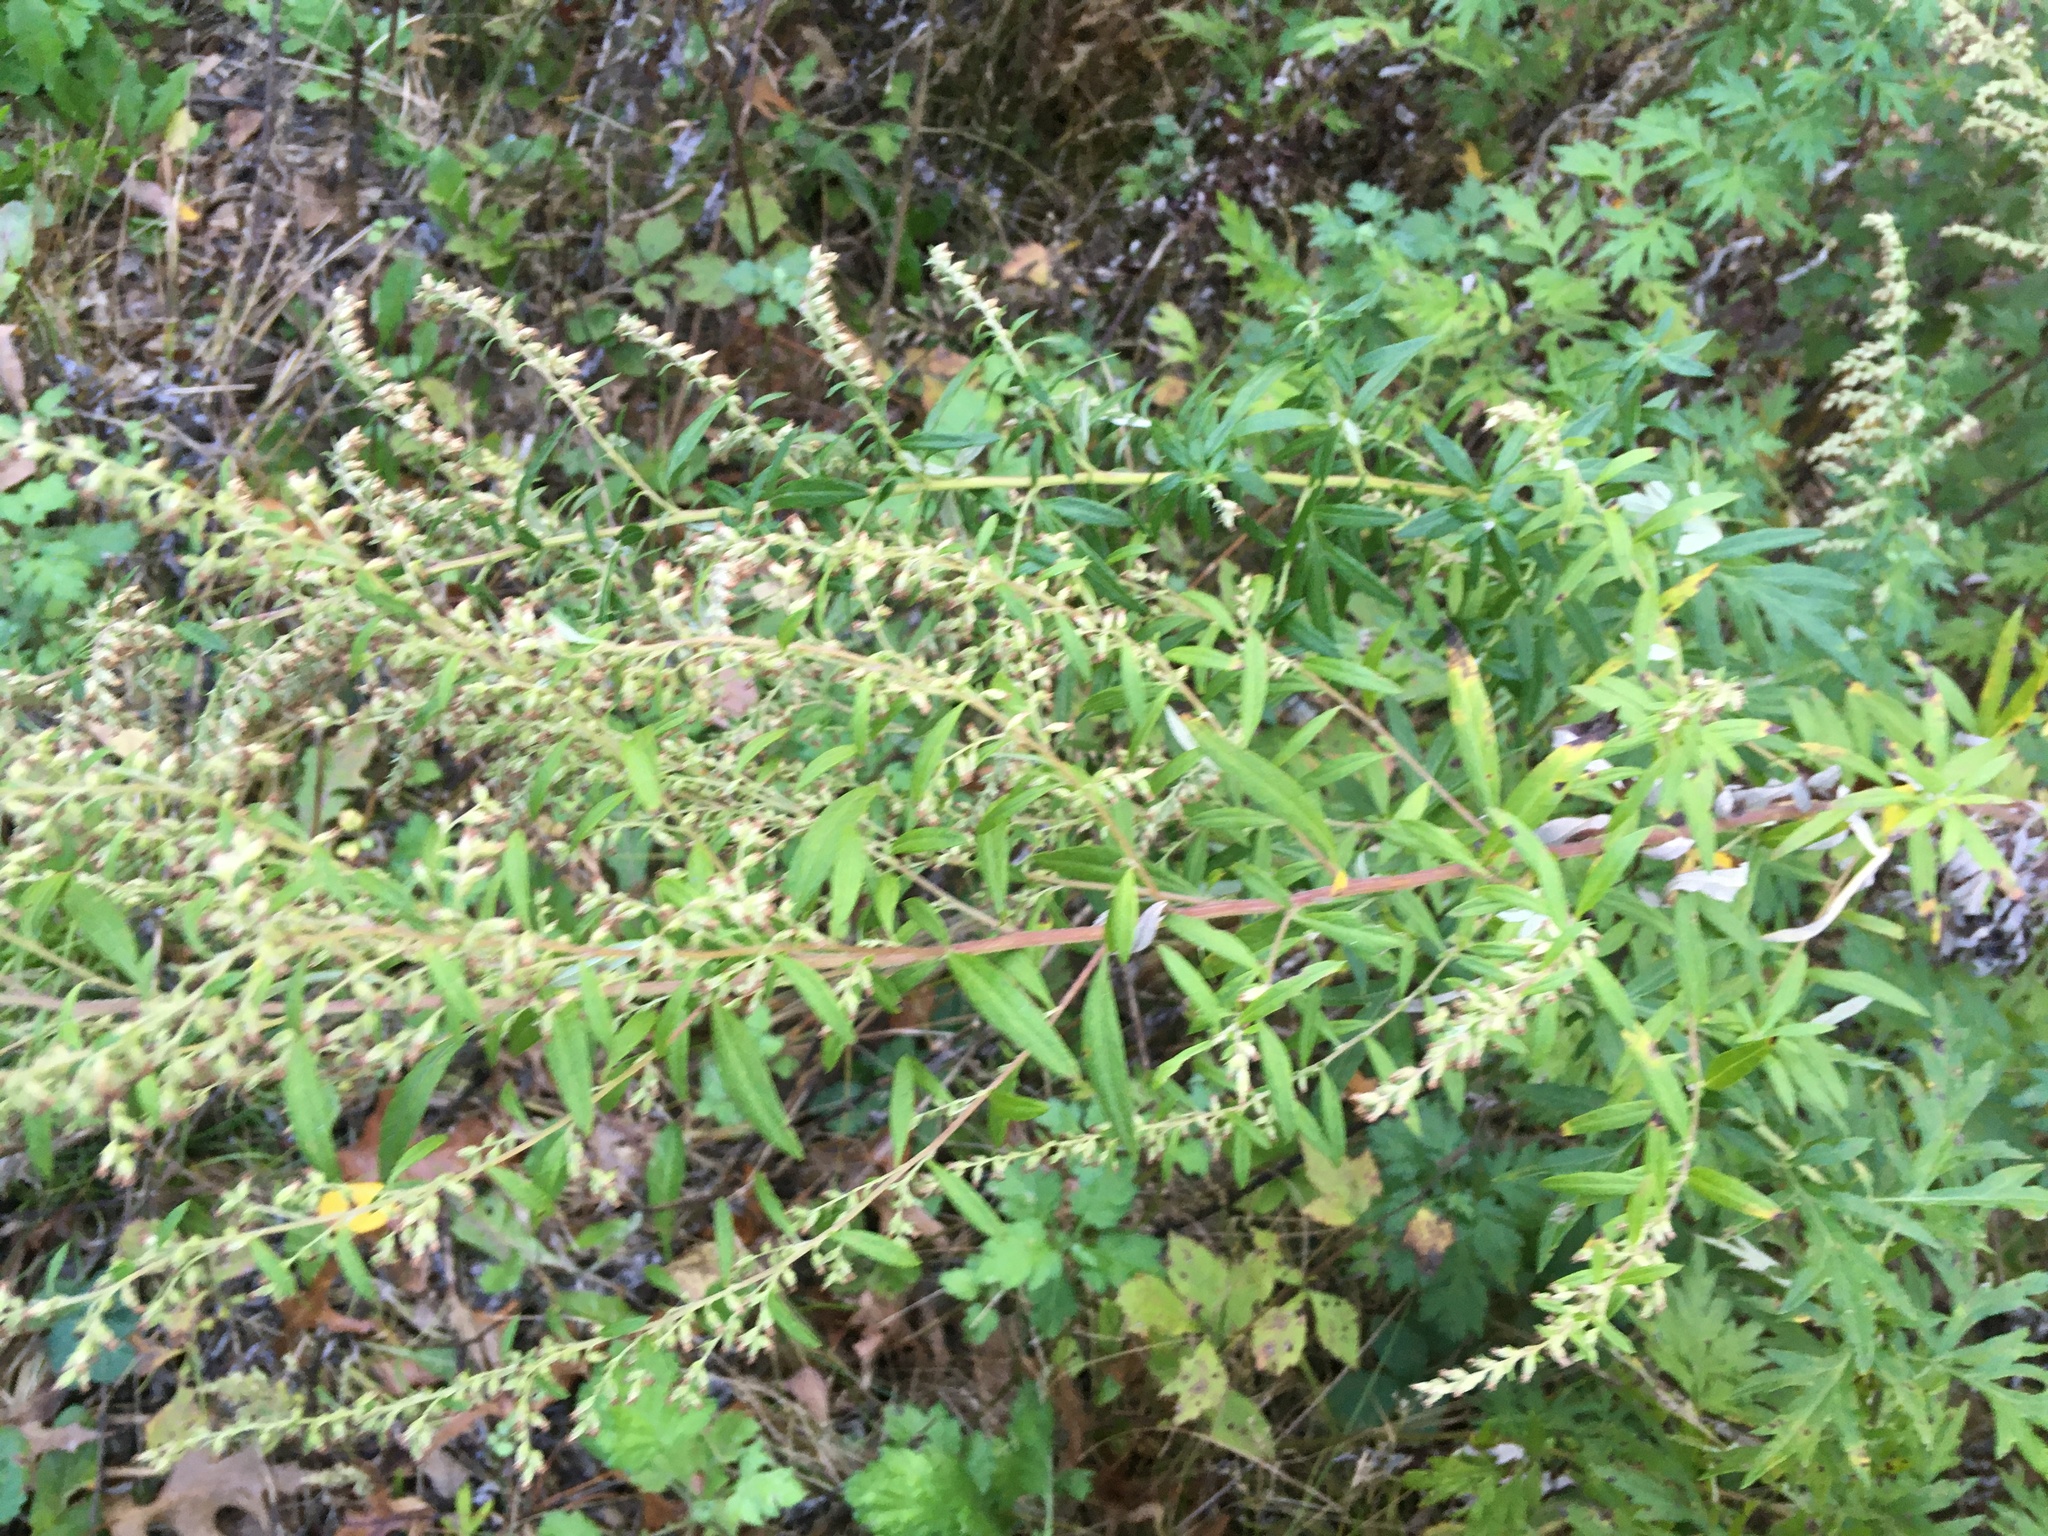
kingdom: Plantae
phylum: Tracheophyta
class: Magnoliopsida
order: Asterales
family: Asteraceae
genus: Artemisia
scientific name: Artemisia vulgaris
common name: Mugwort
